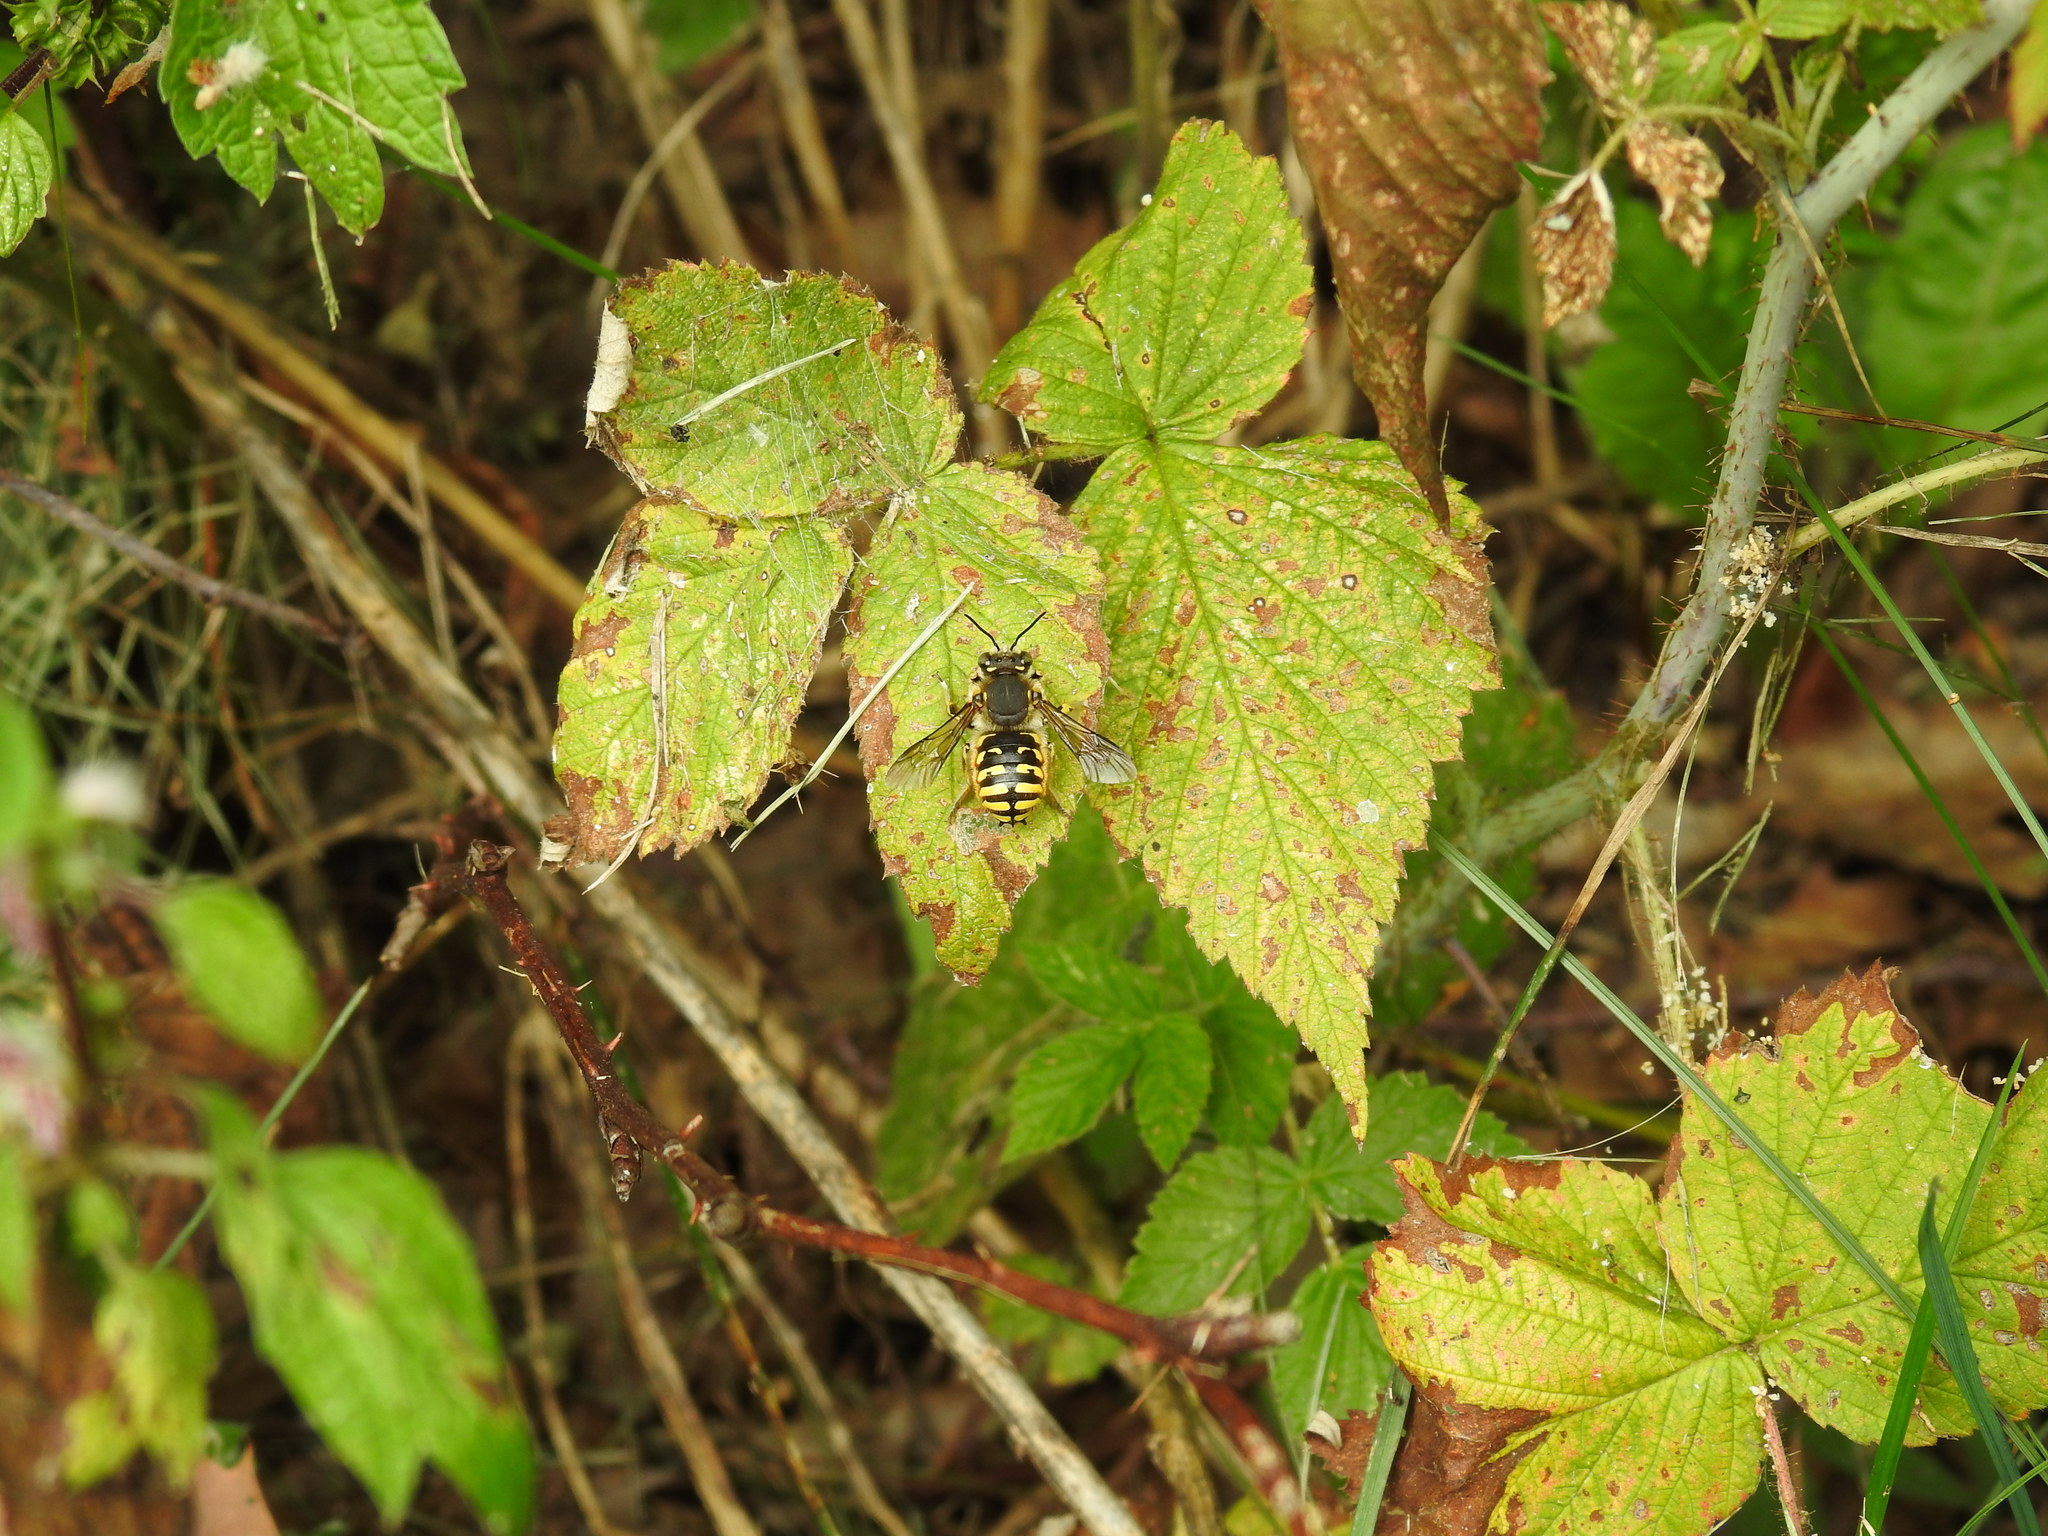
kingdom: Animalia
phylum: Arthropoda
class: Insecta
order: Hymenoptera
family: Megachilidae
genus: Anthidium
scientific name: Anthidium manicatum
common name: Wool carder bee
